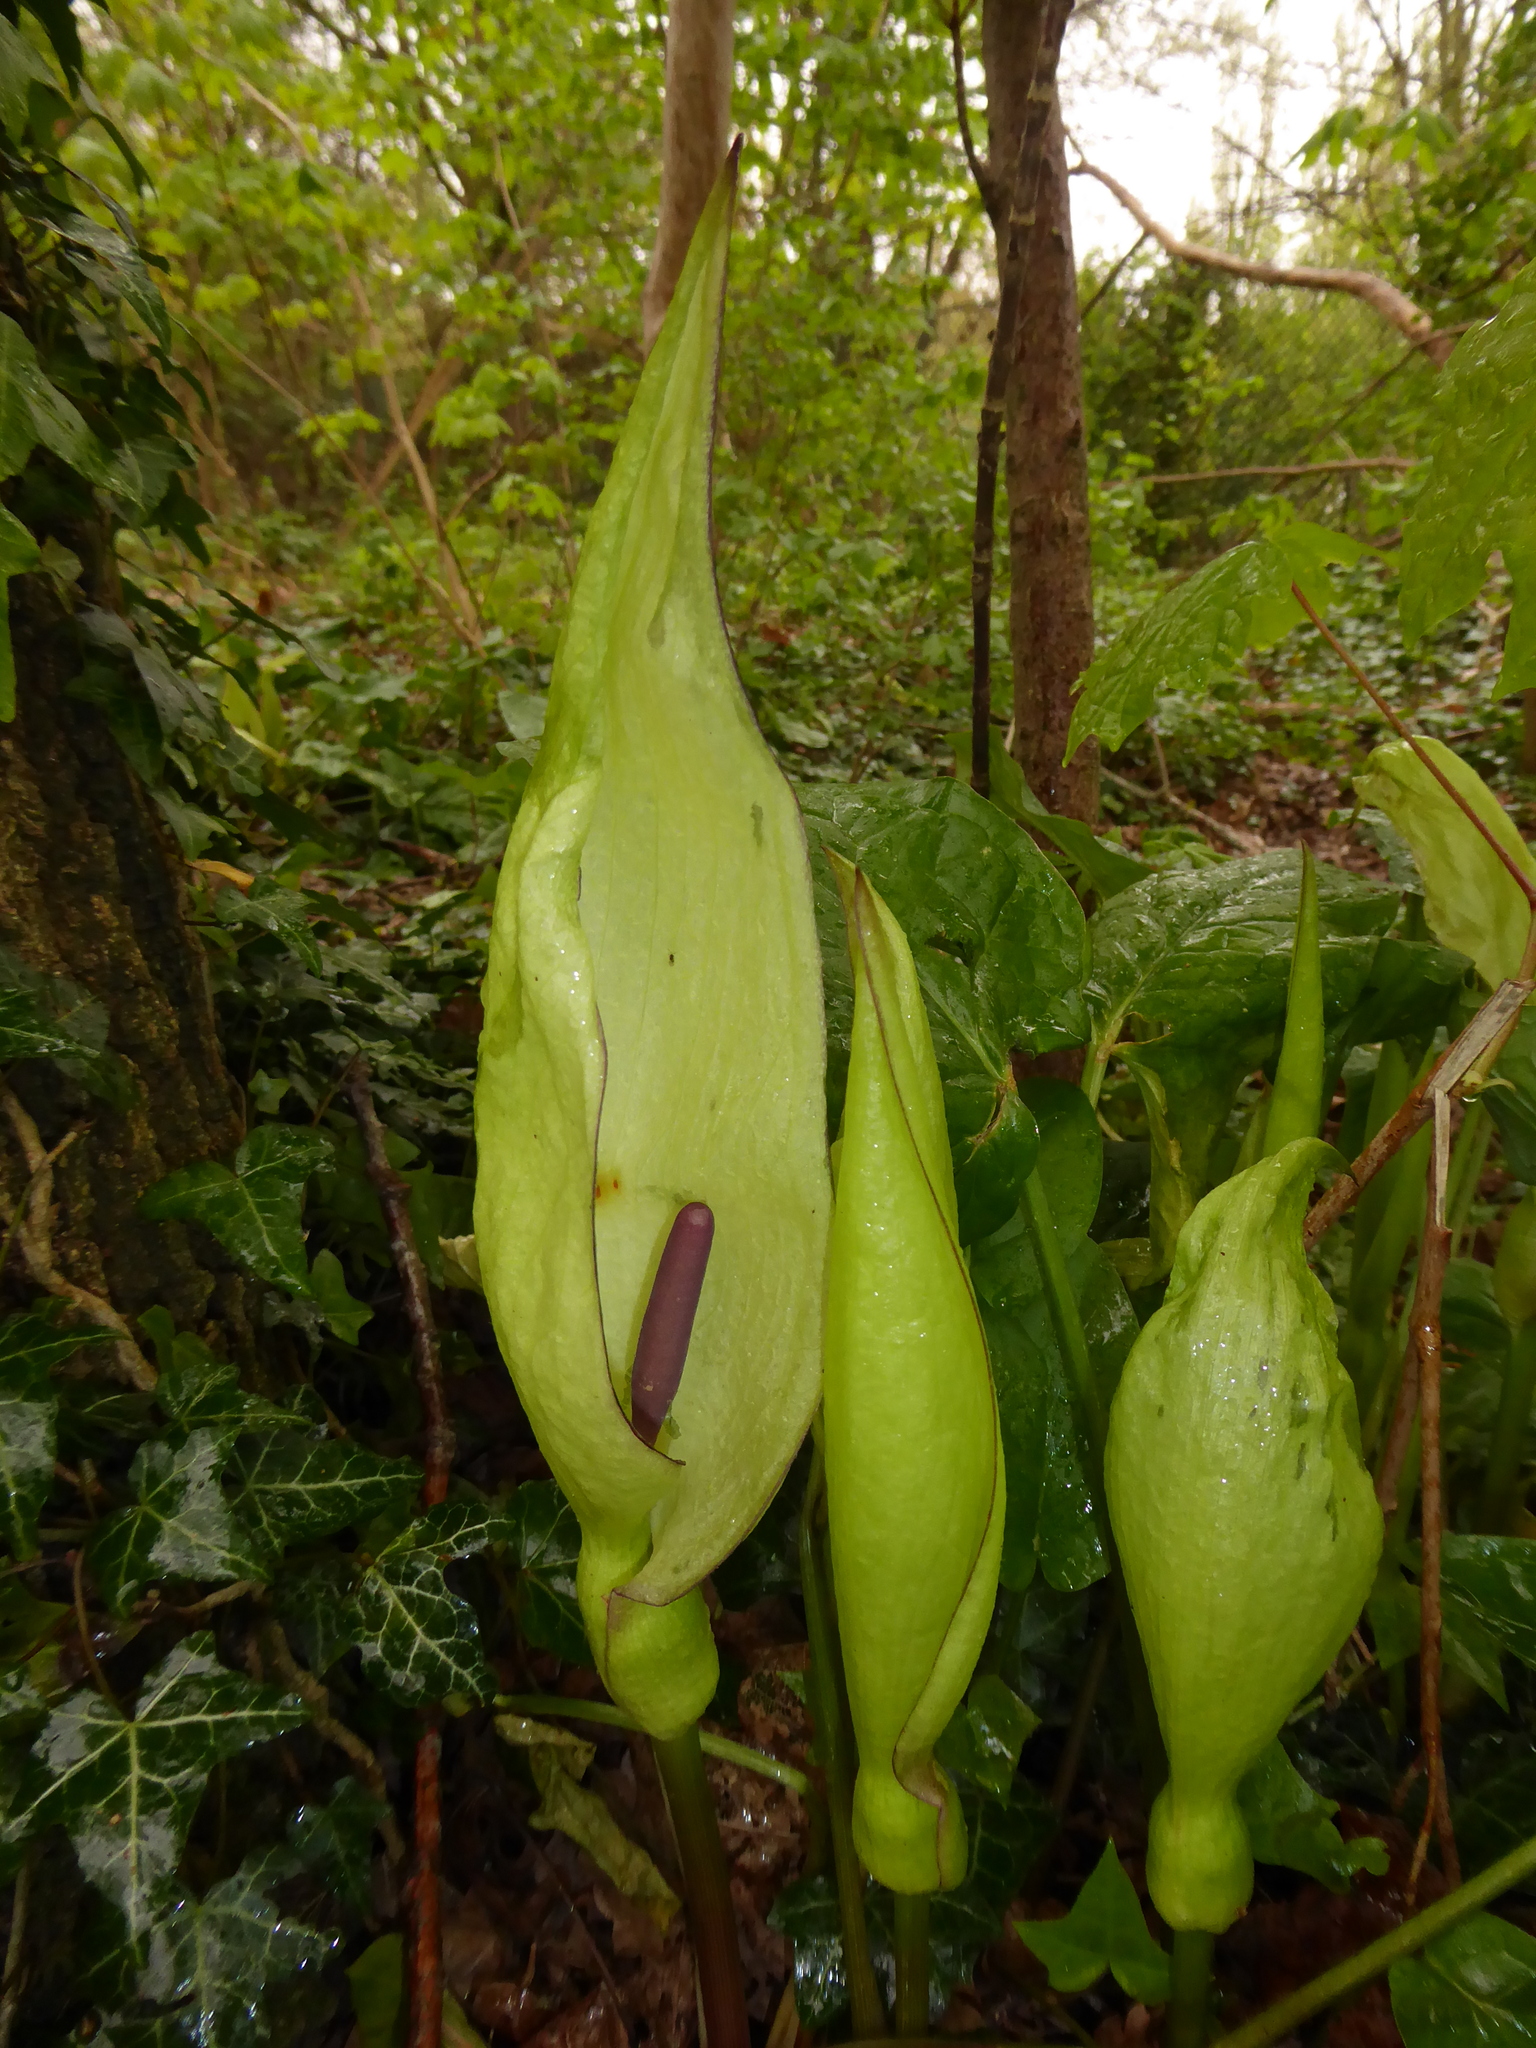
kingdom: Plantae
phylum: Tracheophyta
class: Liliopsida
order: Alismatales
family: Araceae
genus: Arum
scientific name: Arum maculatum
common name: Lords-and-ladies
